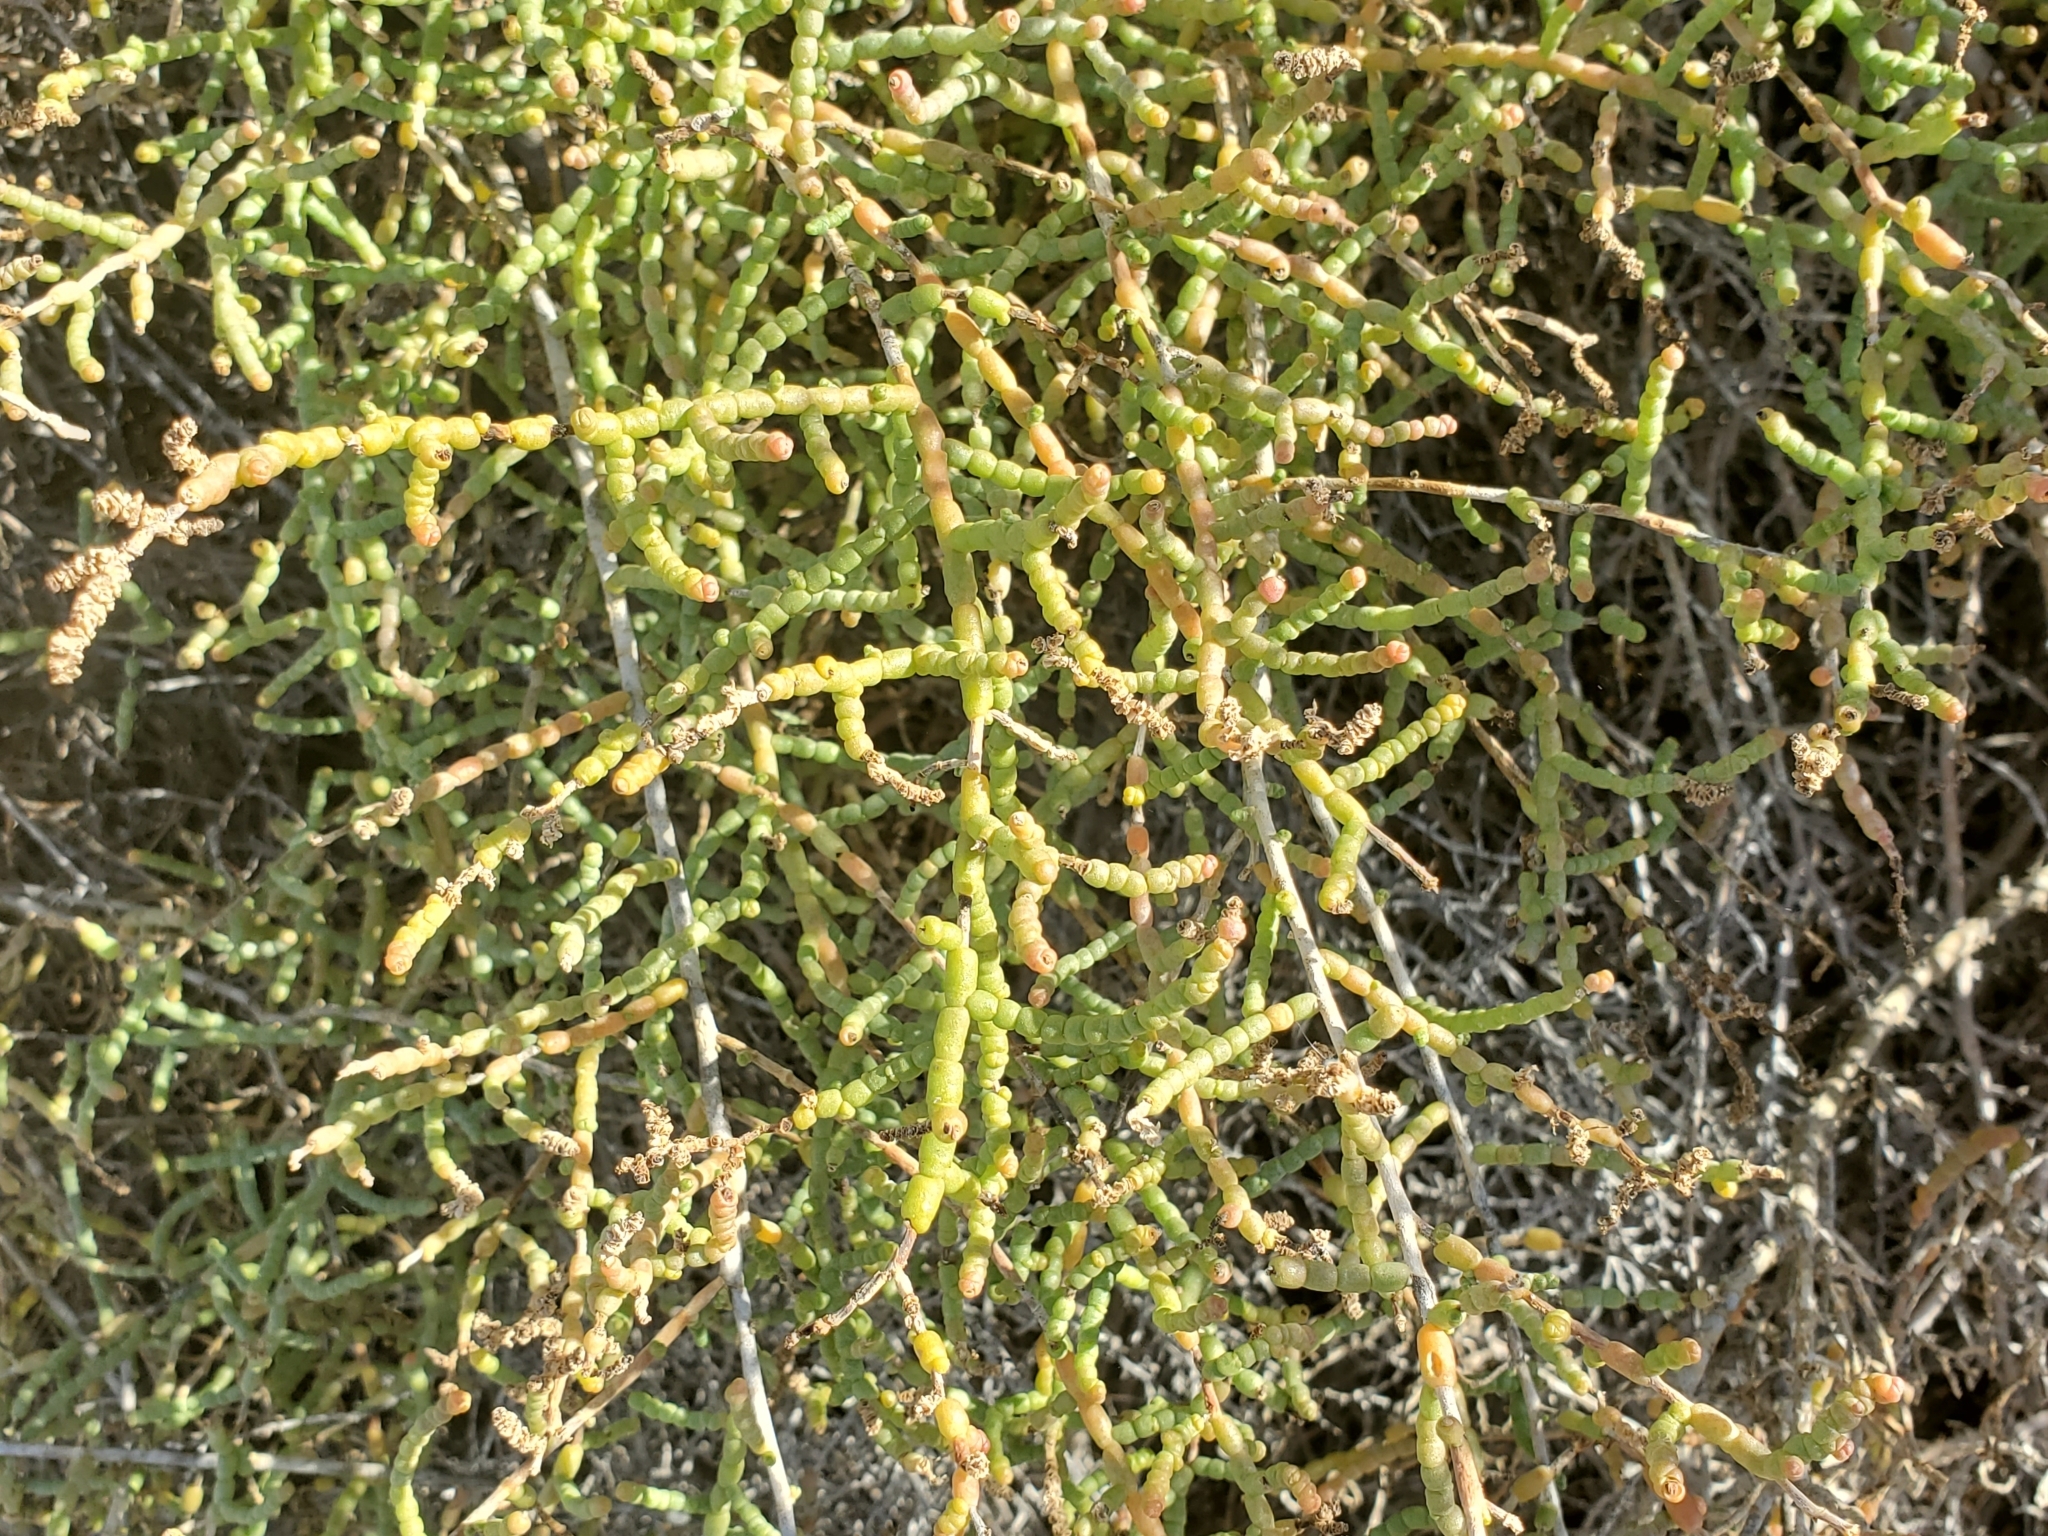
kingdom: Plantae
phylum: Tracheophyta
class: Magnoliopsida
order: Caryophyllales
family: Amaranthaceae
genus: Allenrolfea
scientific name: Allenrolfea occidentalis
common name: Iodine-bush
